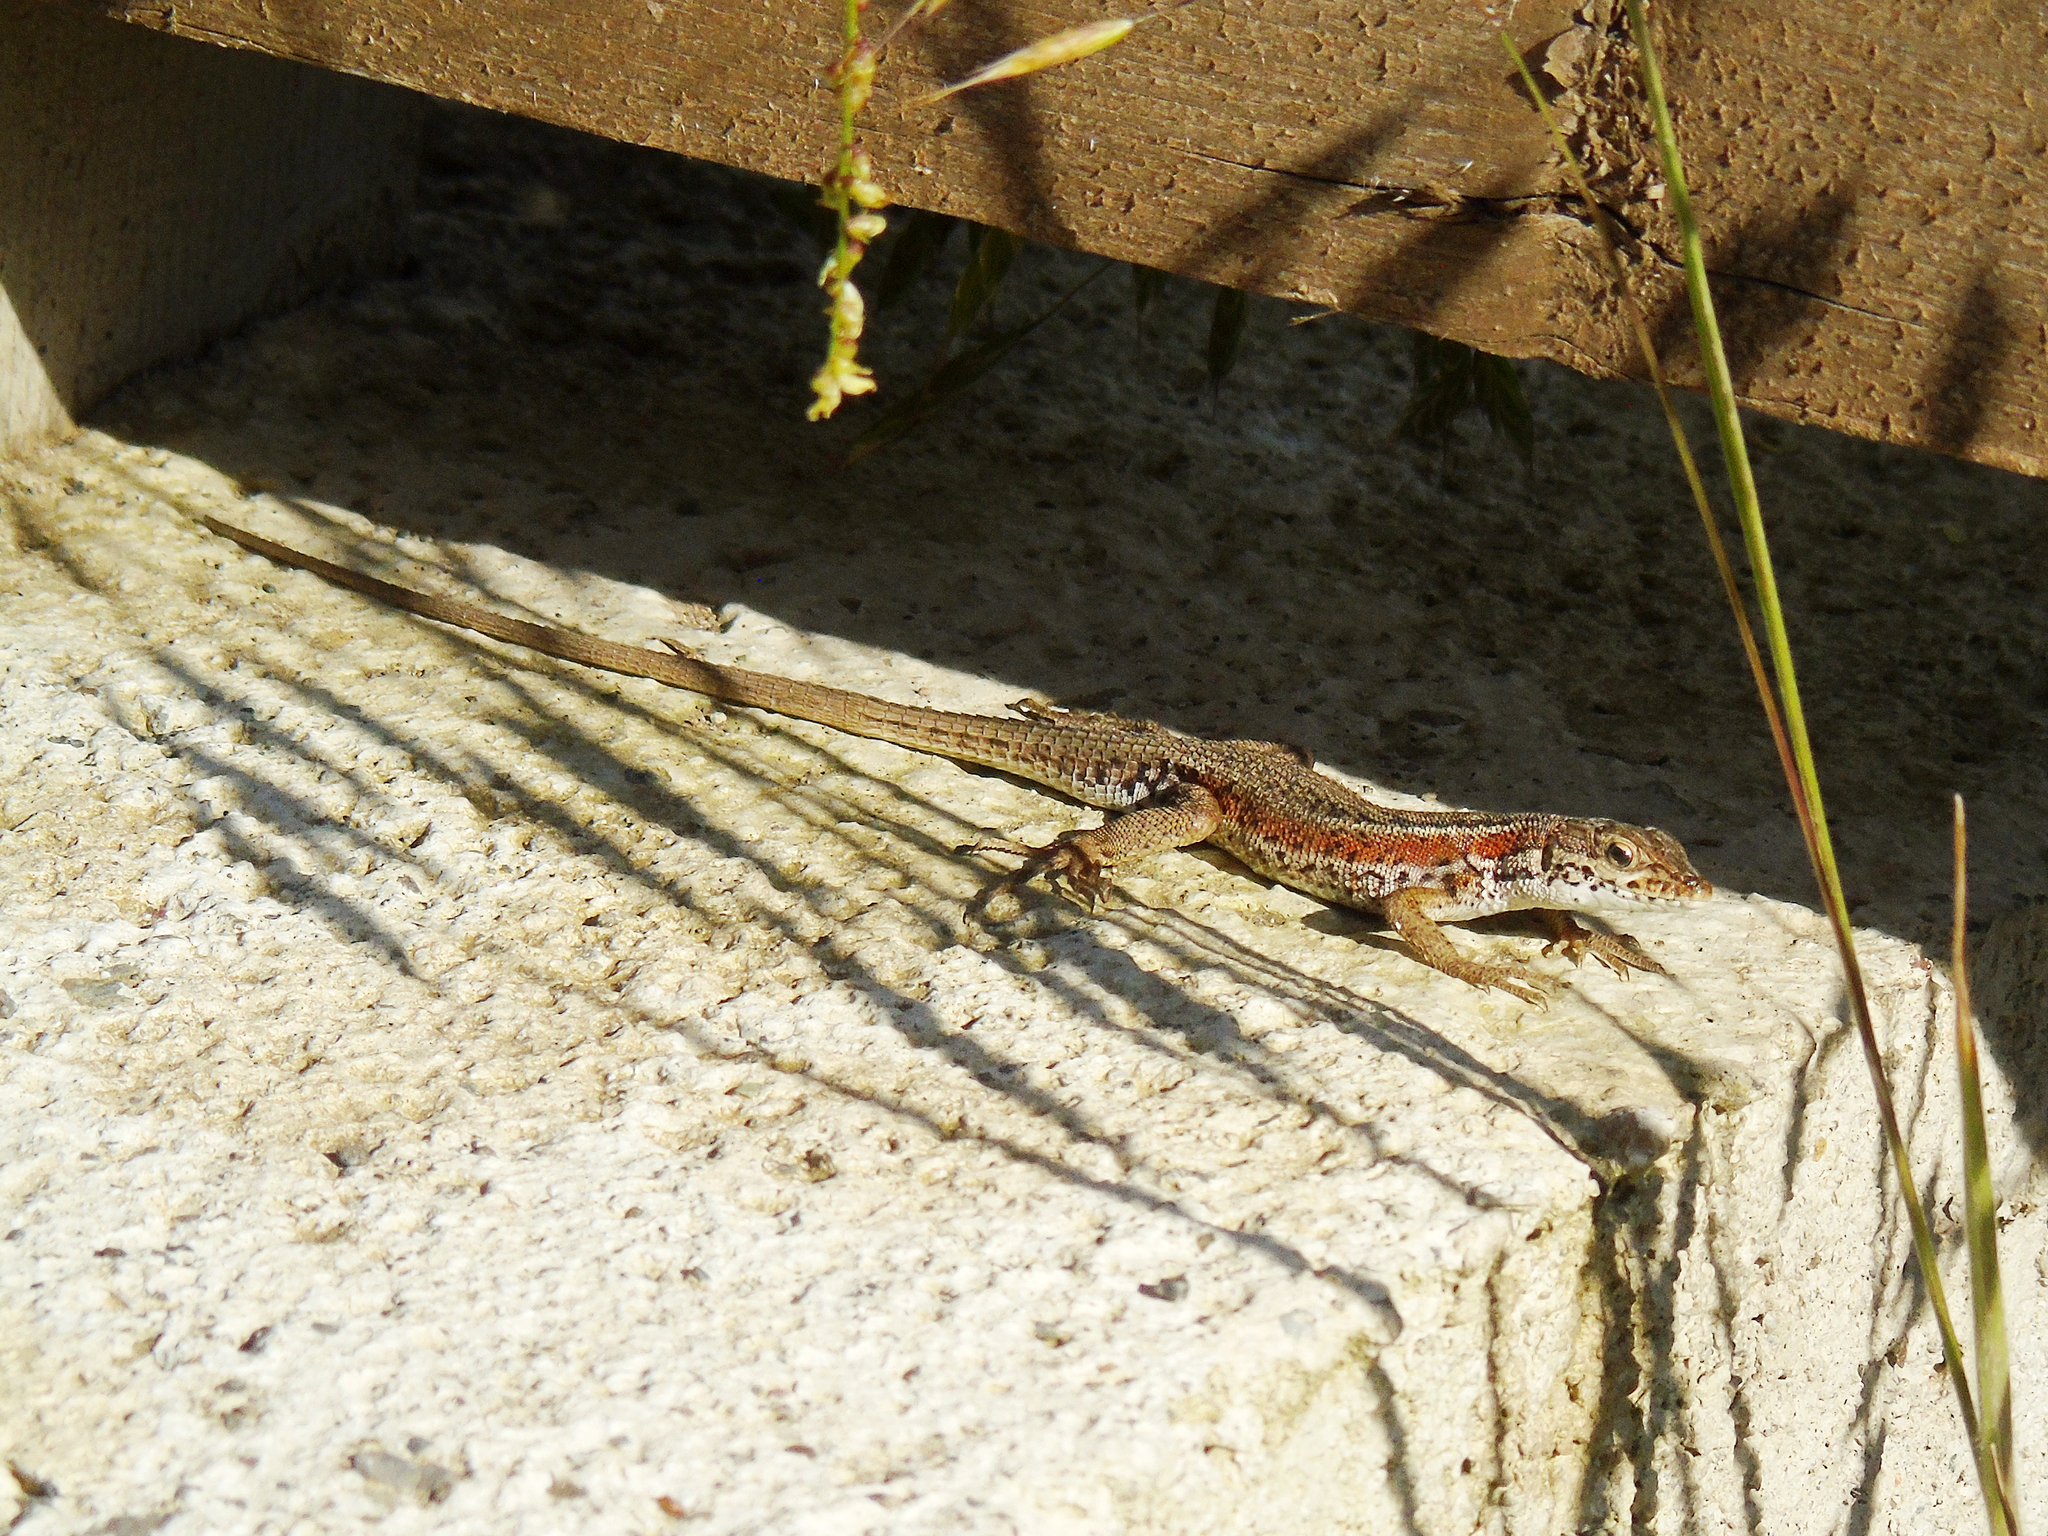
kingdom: Animalia
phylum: Chordata
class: Squamata
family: Lacertidae
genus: Ophisops
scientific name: Ophisops elegans
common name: Snake-eyed lizard
